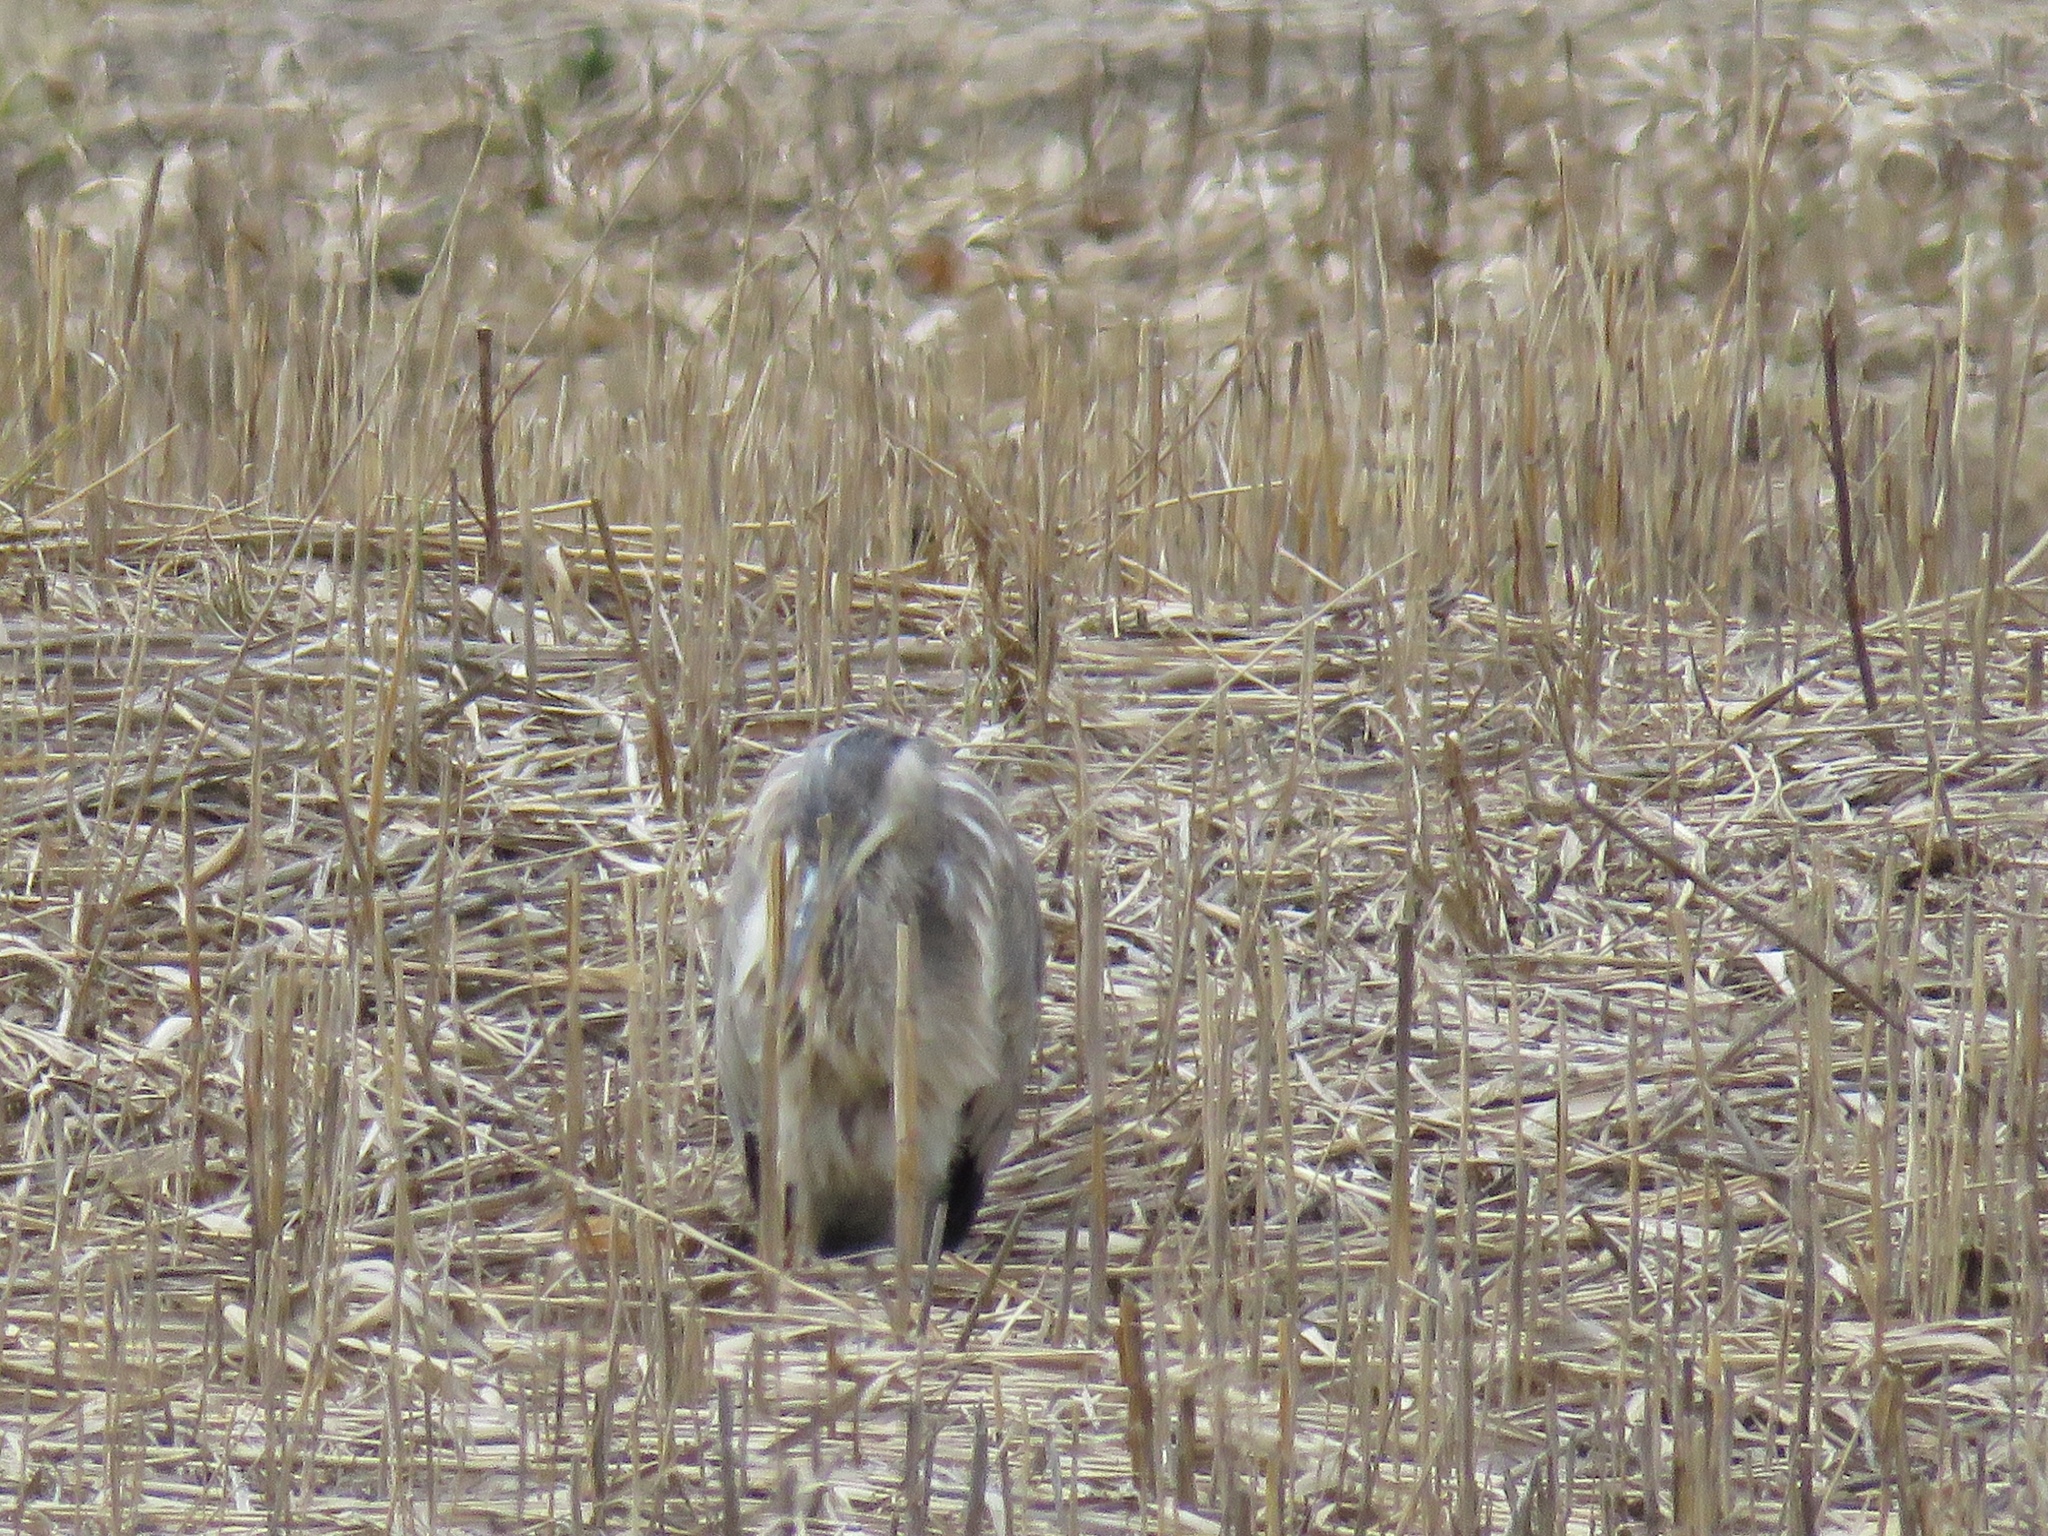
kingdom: Animalia
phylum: Chordata
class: Aves
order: Pelecaniformes
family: Ardeidae
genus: Ardea
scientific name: Ardea herodias
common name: Great blue heron
